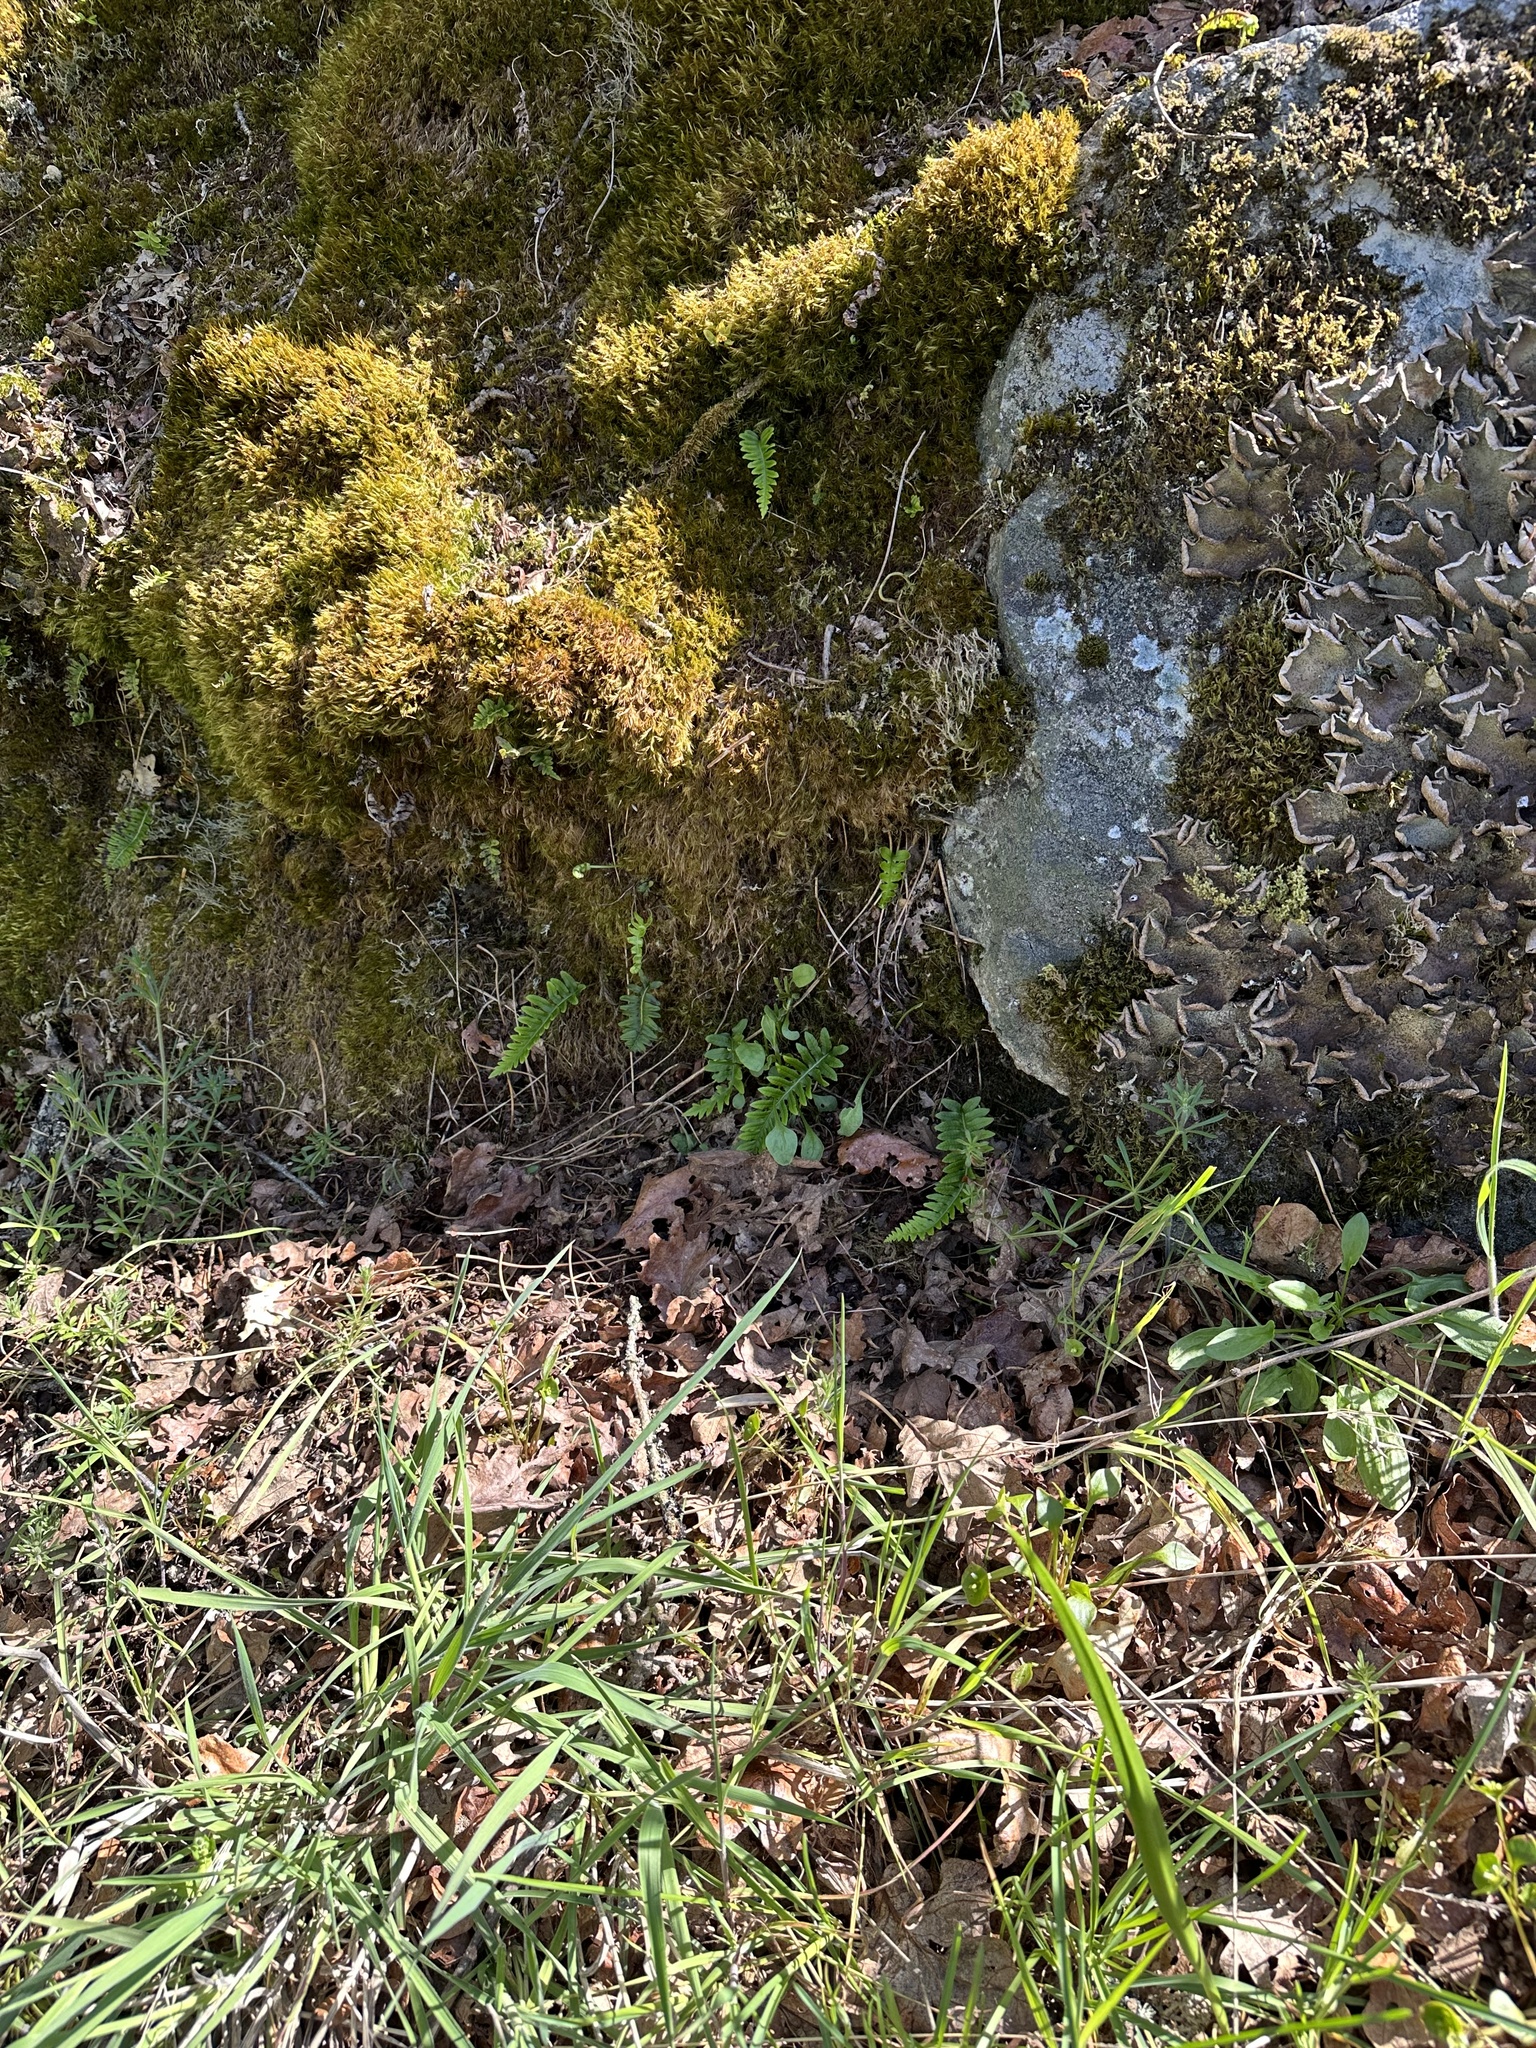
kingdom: Plantae
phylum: Tracheophyta
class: Polypodiopsida
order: Polypodiales
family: Polypodiaceae
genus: Polypodium
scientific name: Polypodium glycyrrhiza
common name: Licorice fern
